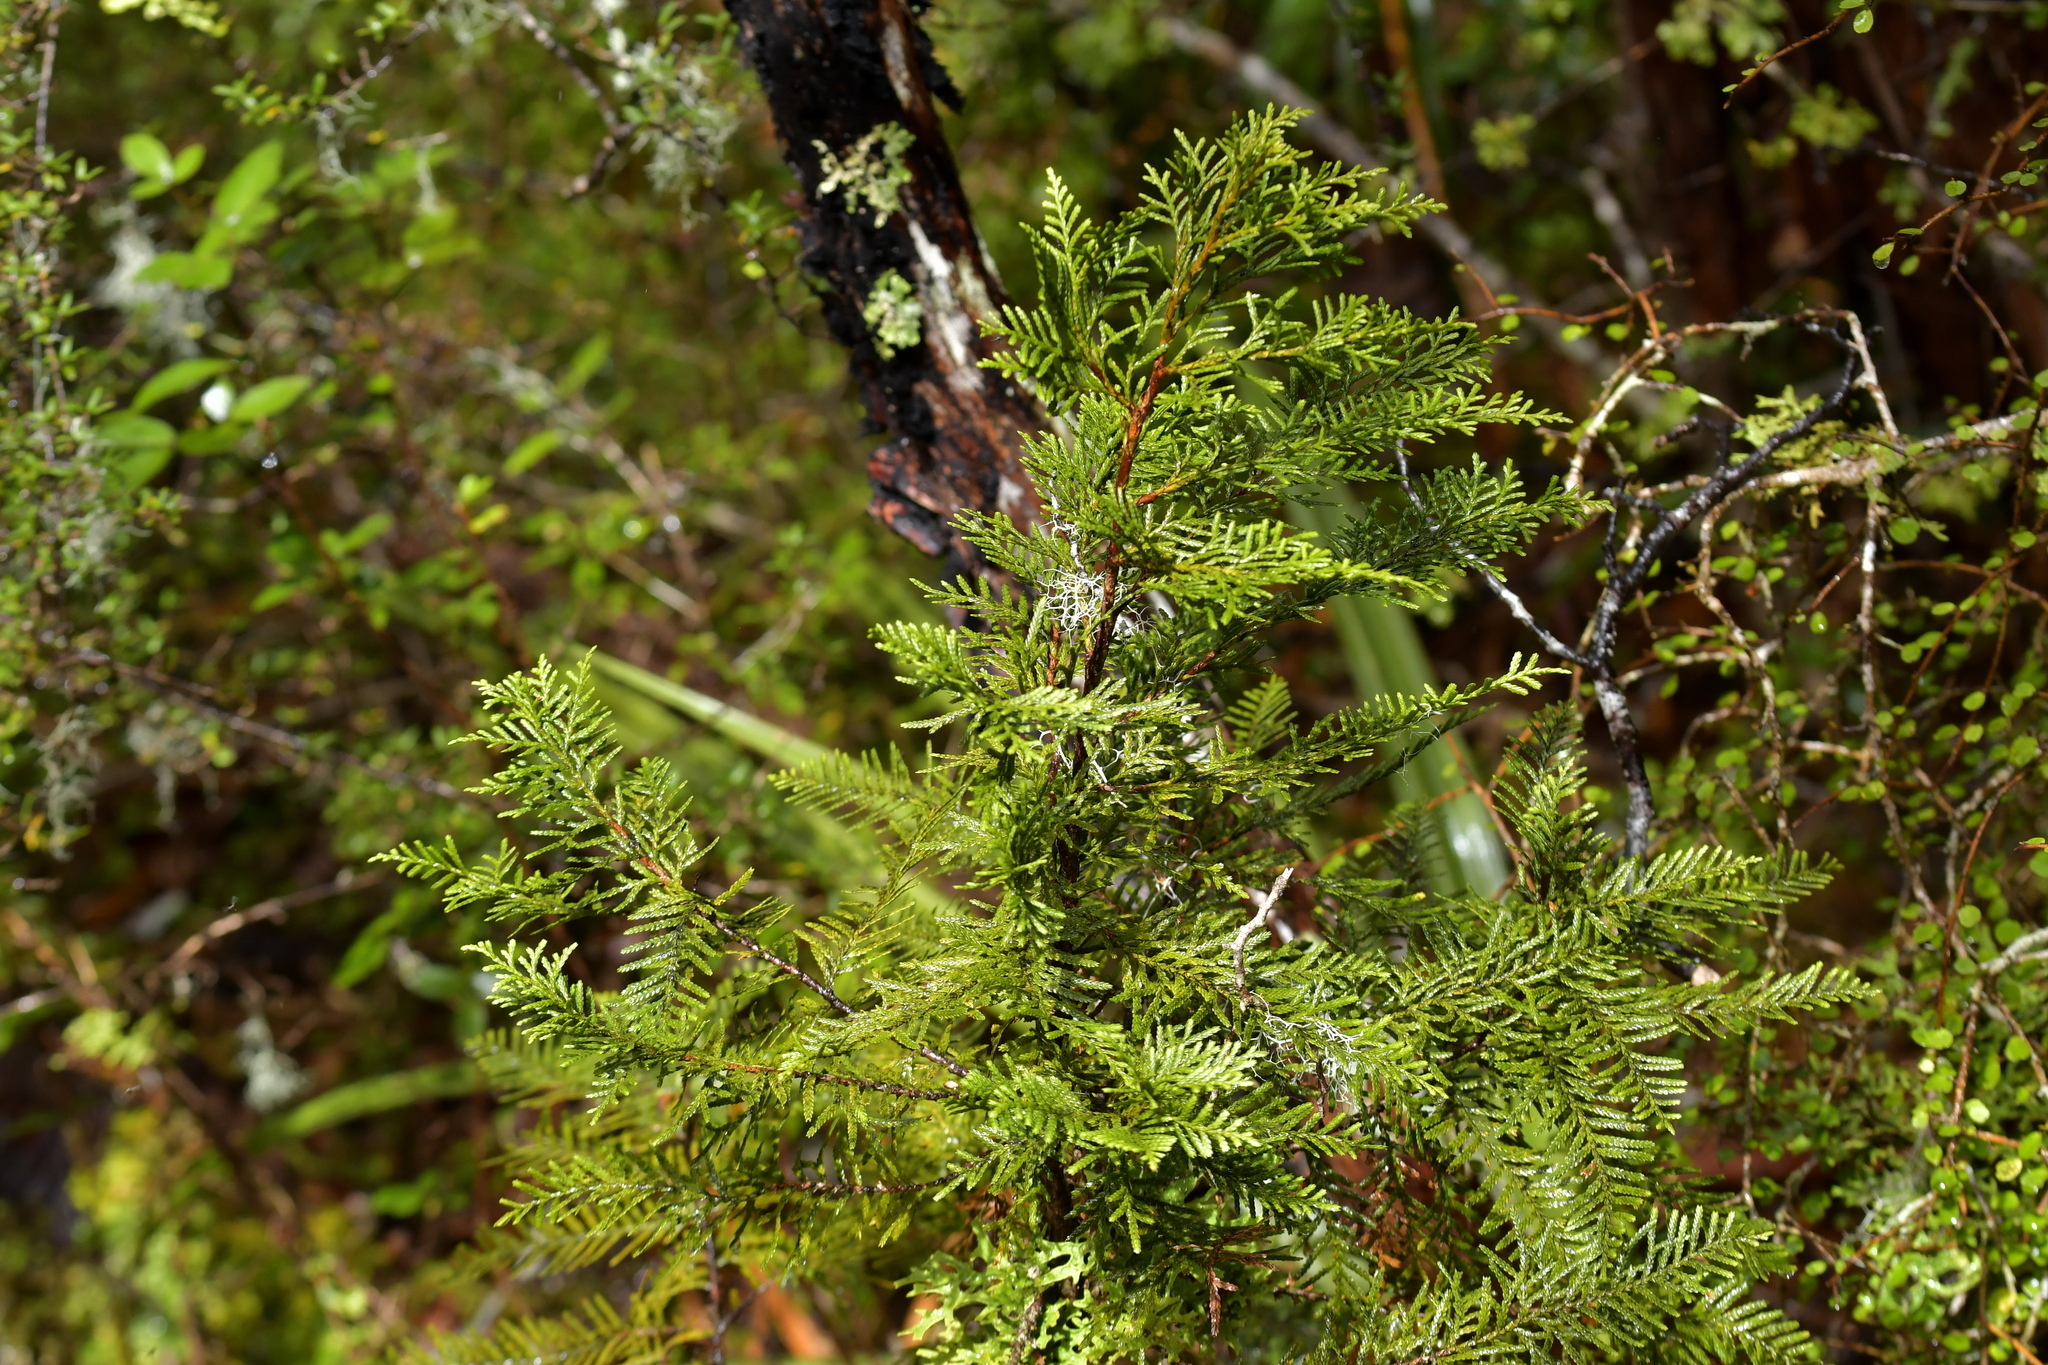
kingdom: Plantae
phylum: Tracheophyta
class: Pinopsida
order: Pinales
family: Cupressaceae
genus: Libocedrus
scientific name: Libocedrus bidwillii
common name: Cedar
